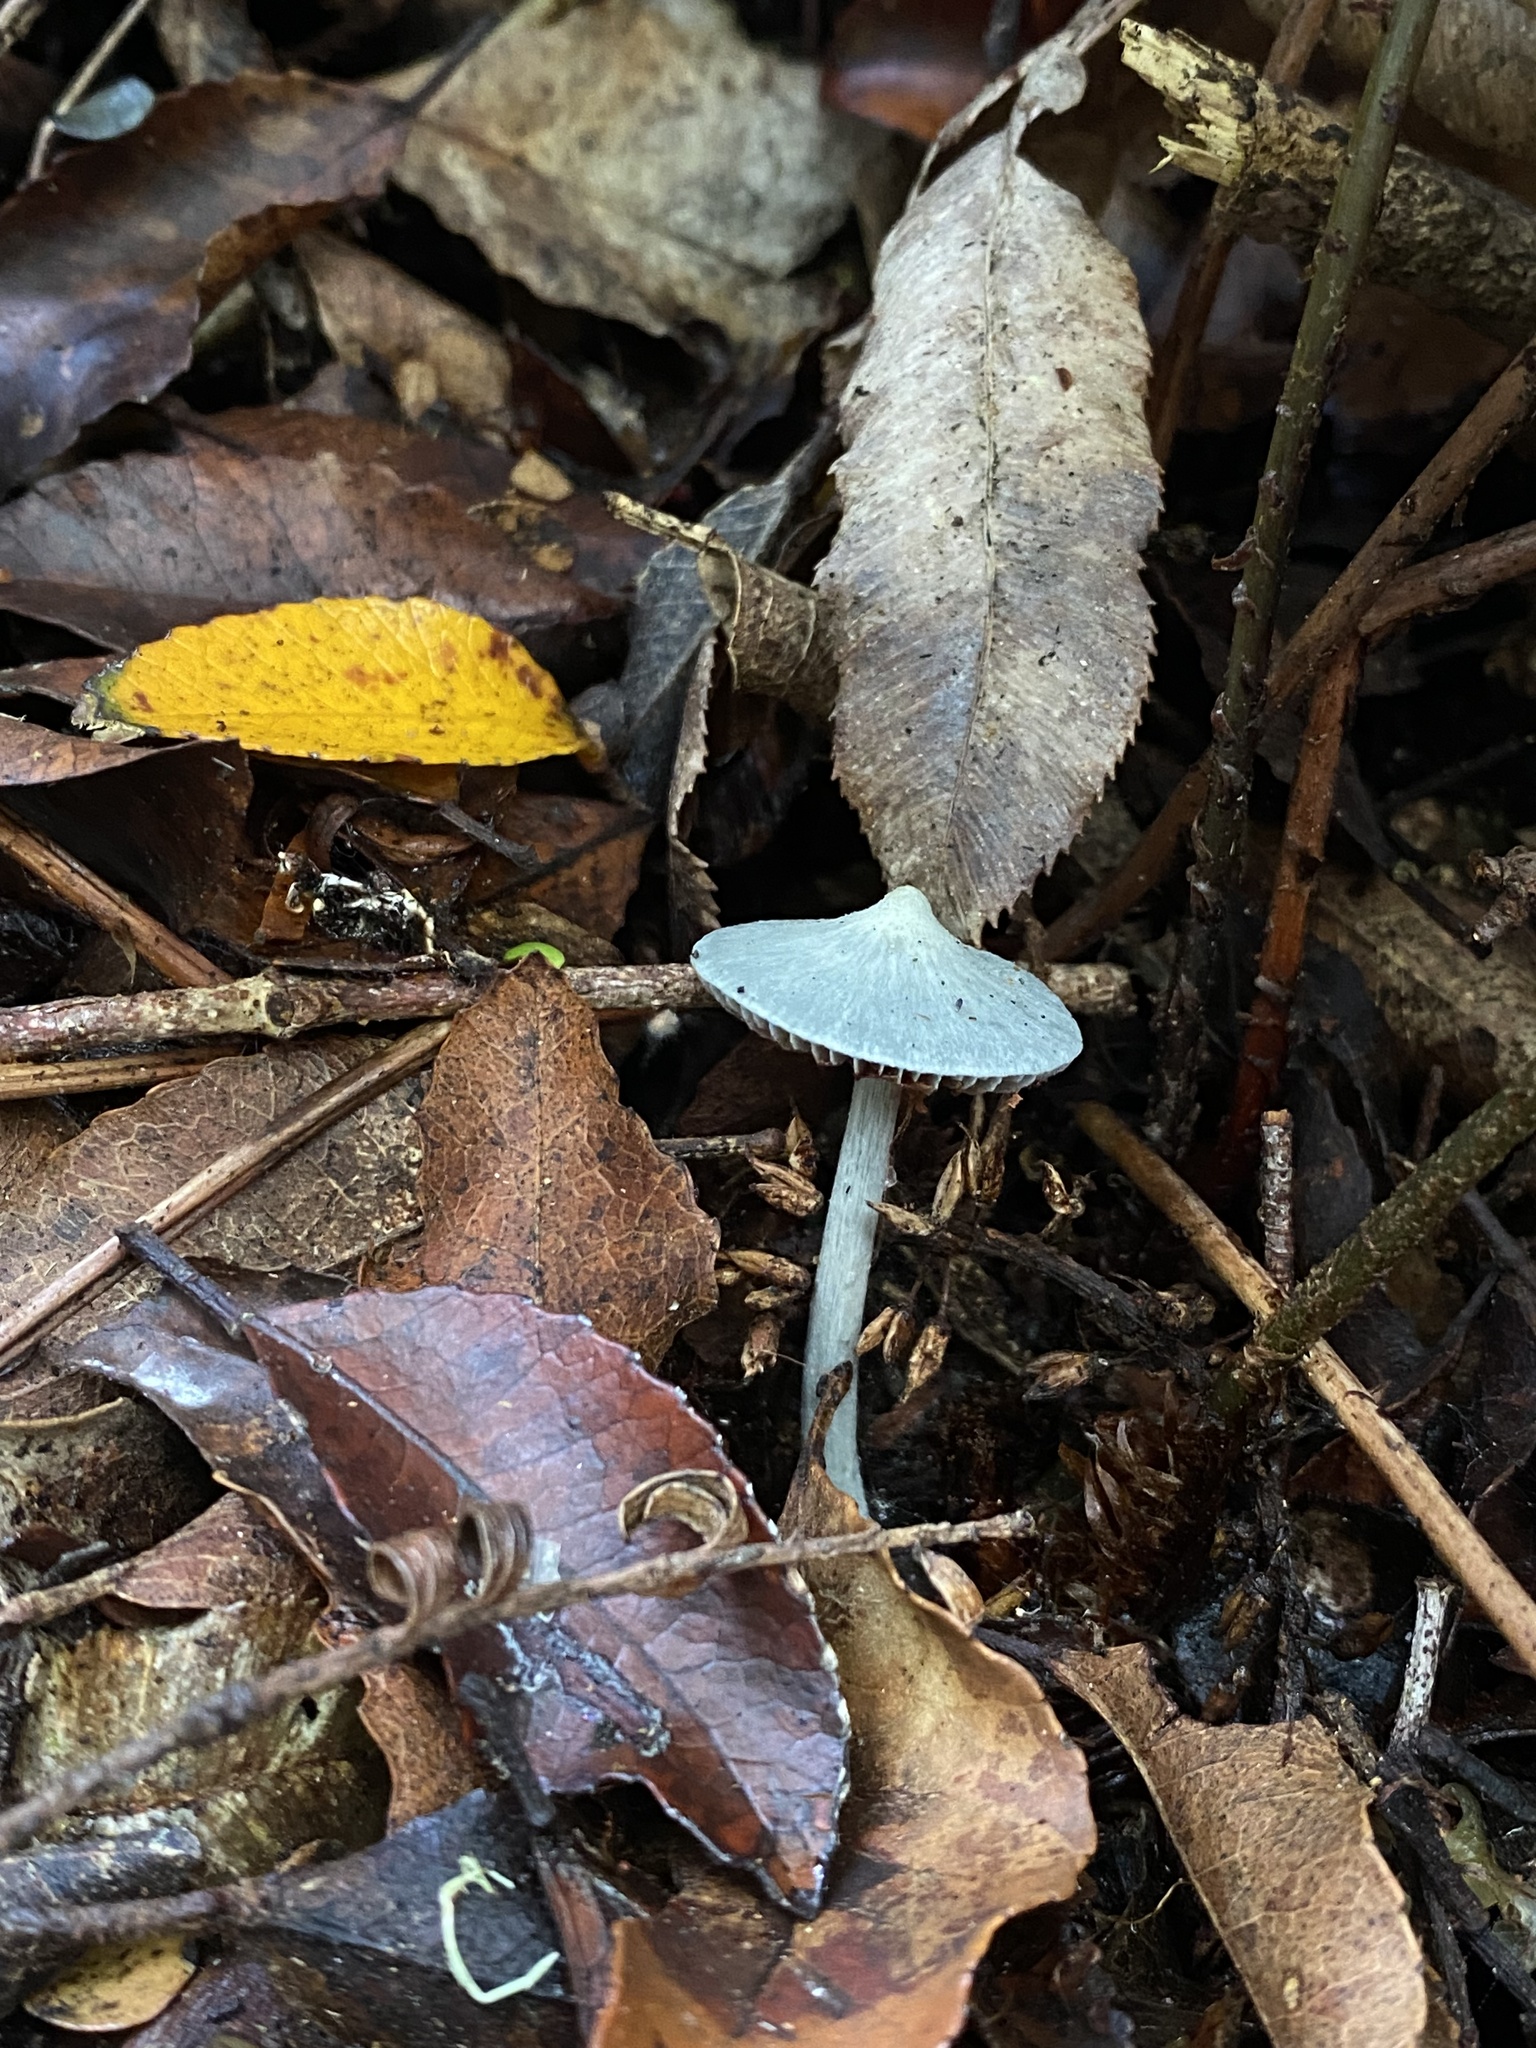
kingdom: Fungi
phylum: Basidiomycota
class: Agaricomycetes
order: Agaricales
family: Entolomataceae
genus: Entoloma
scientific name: Entoloma hochstetteri
